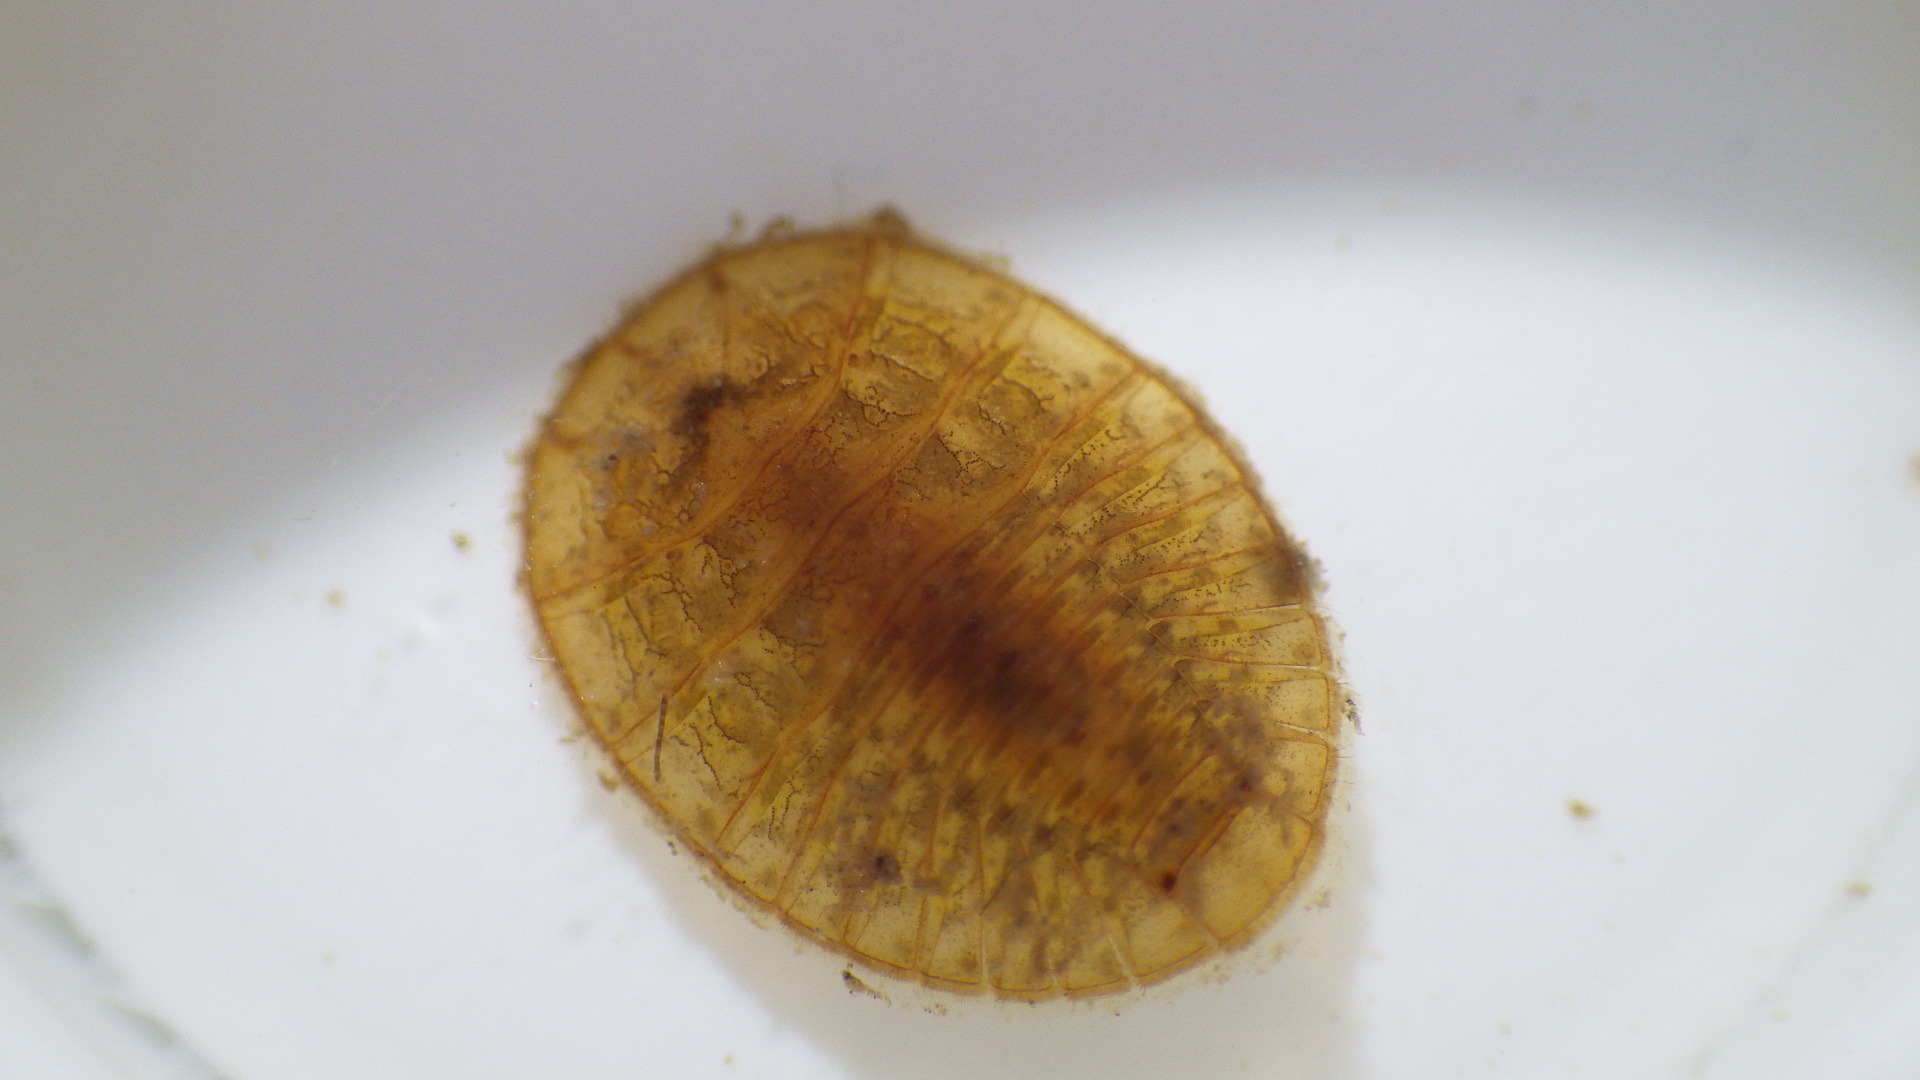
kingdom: Animalia
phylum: Arthropoda
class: Insecta
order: Coleoptera
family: Psephenidae
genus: Psephenus
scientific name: Psephenus herricki
